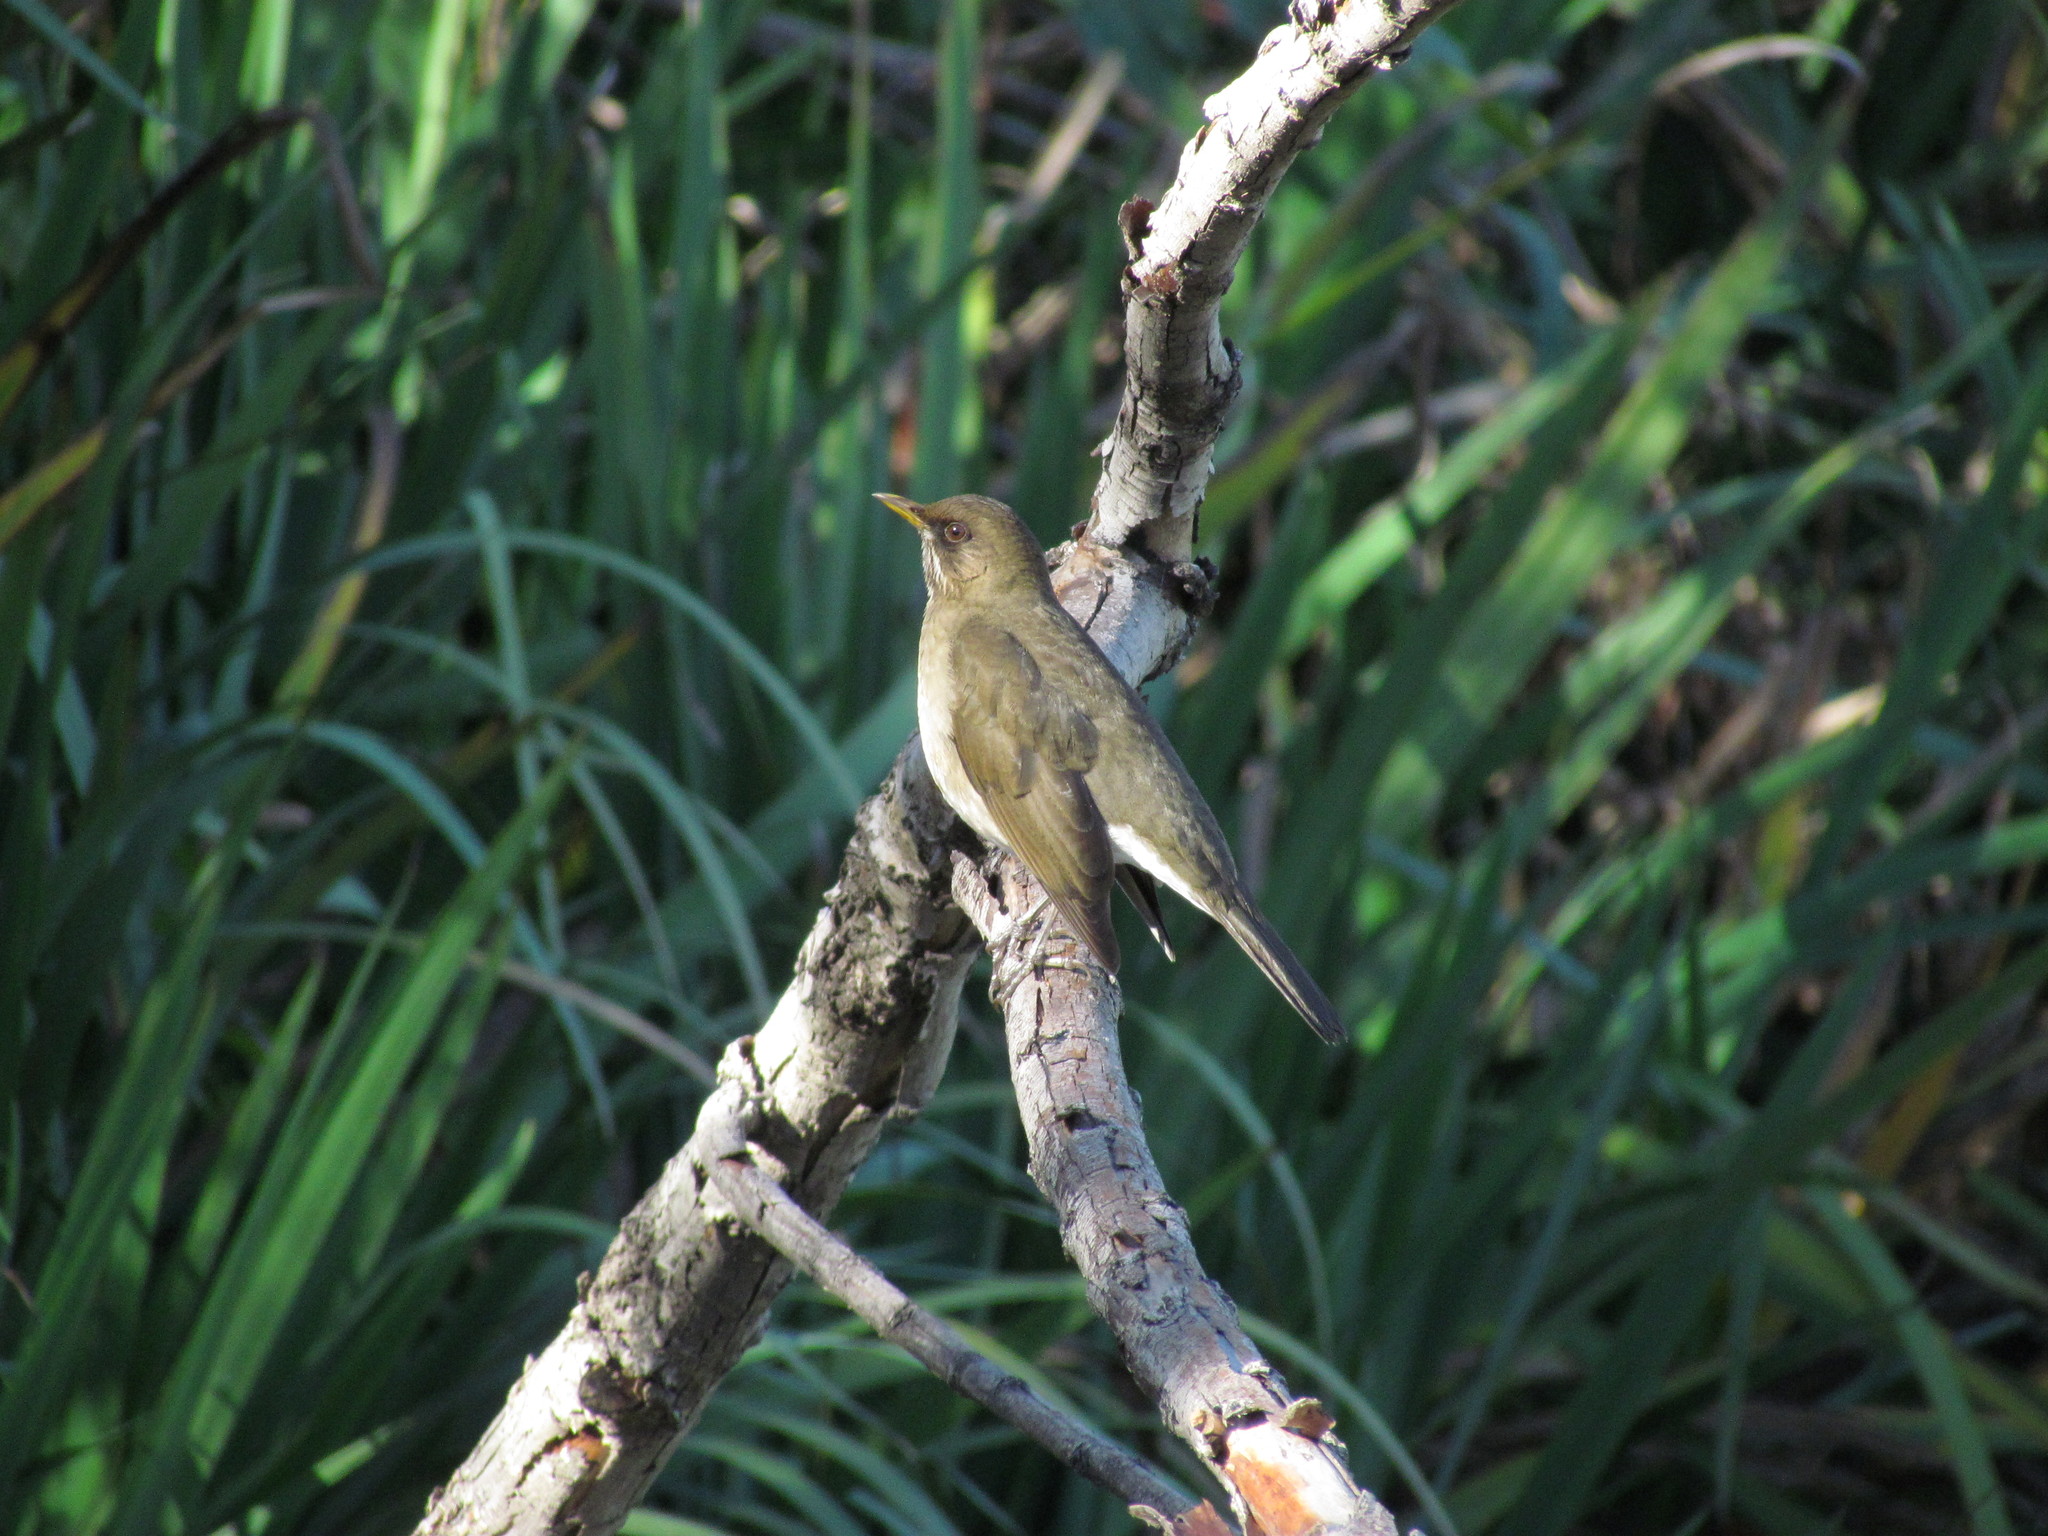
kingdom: Animalia
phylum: Chordata
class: Aves
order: Passeriformes
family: Turdidae
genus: Turdus
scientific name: Turdus amaurochalinus
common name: Creamy-bellied thrush
